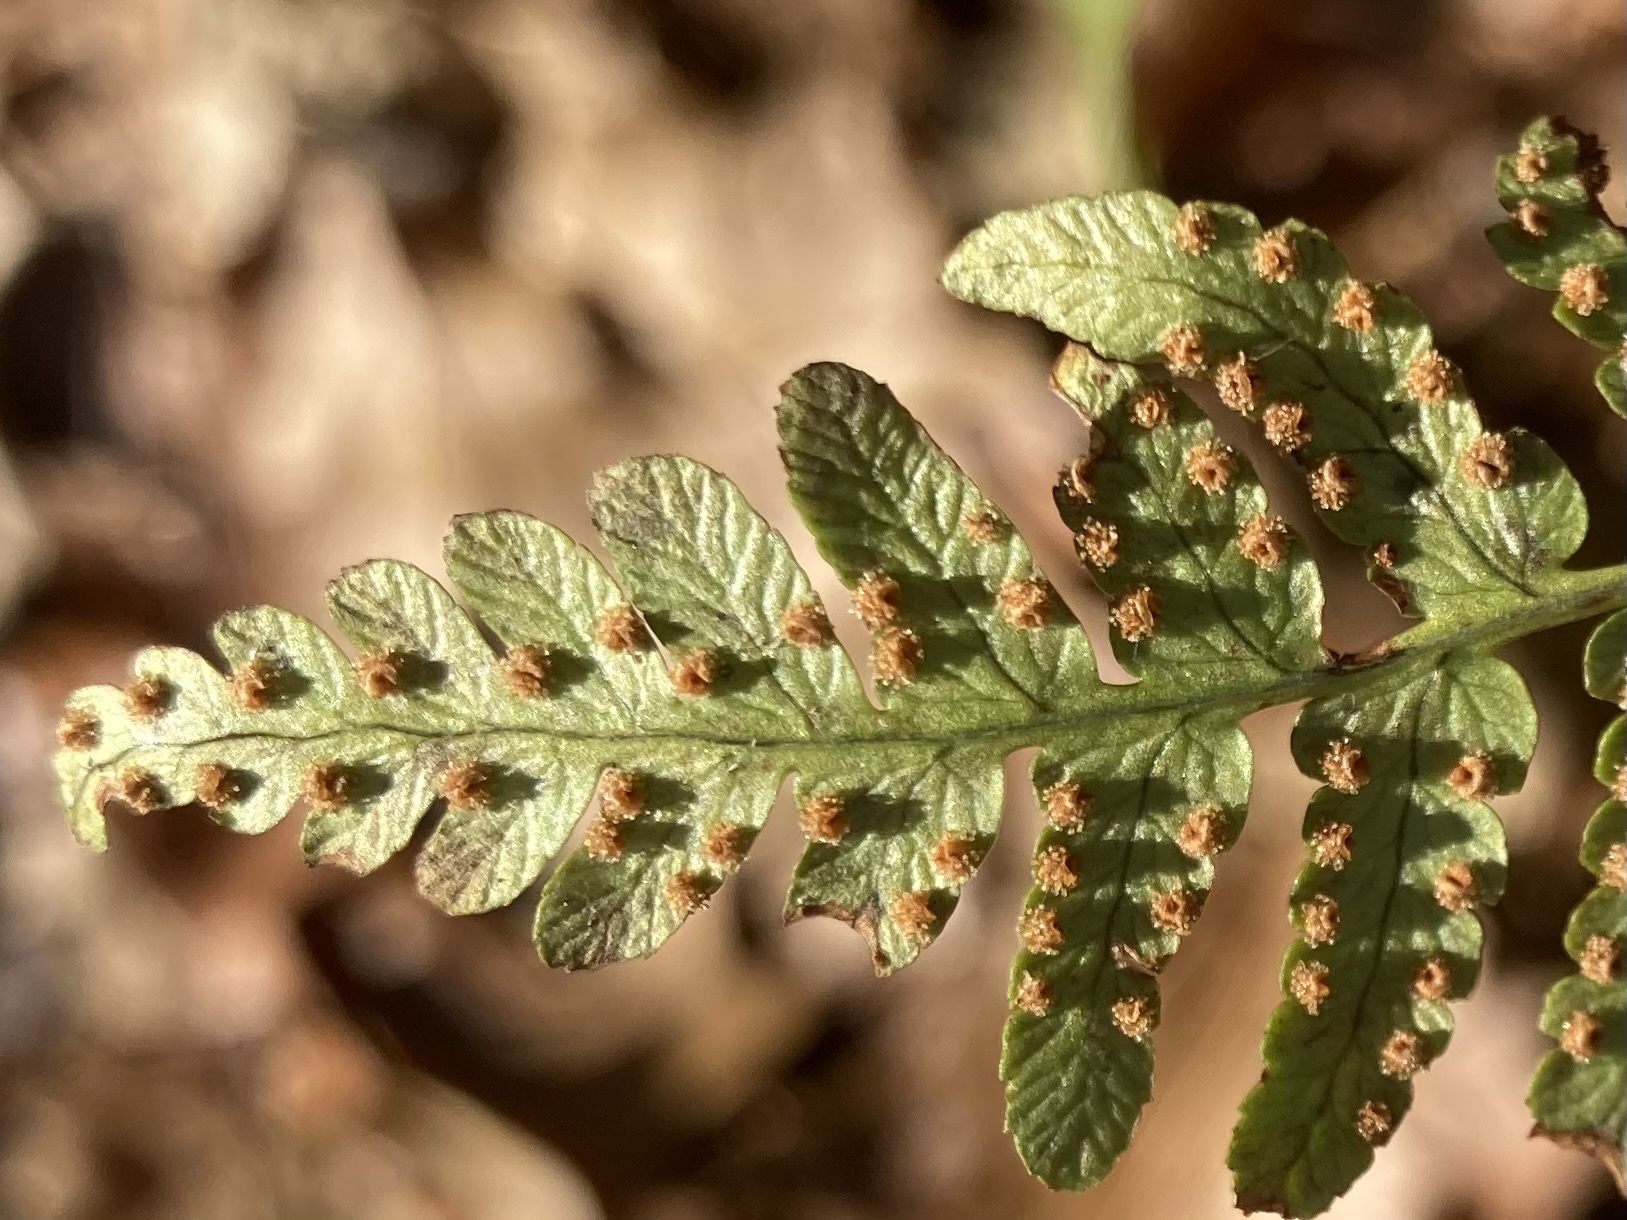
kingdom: Plantae
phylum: Tracheophyta
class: Polypodiopsida
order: Polypodiales
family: Dryopteridaceae
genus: Dryopteris
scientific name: Dryopteris marginalis
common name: Marginal wood fern
